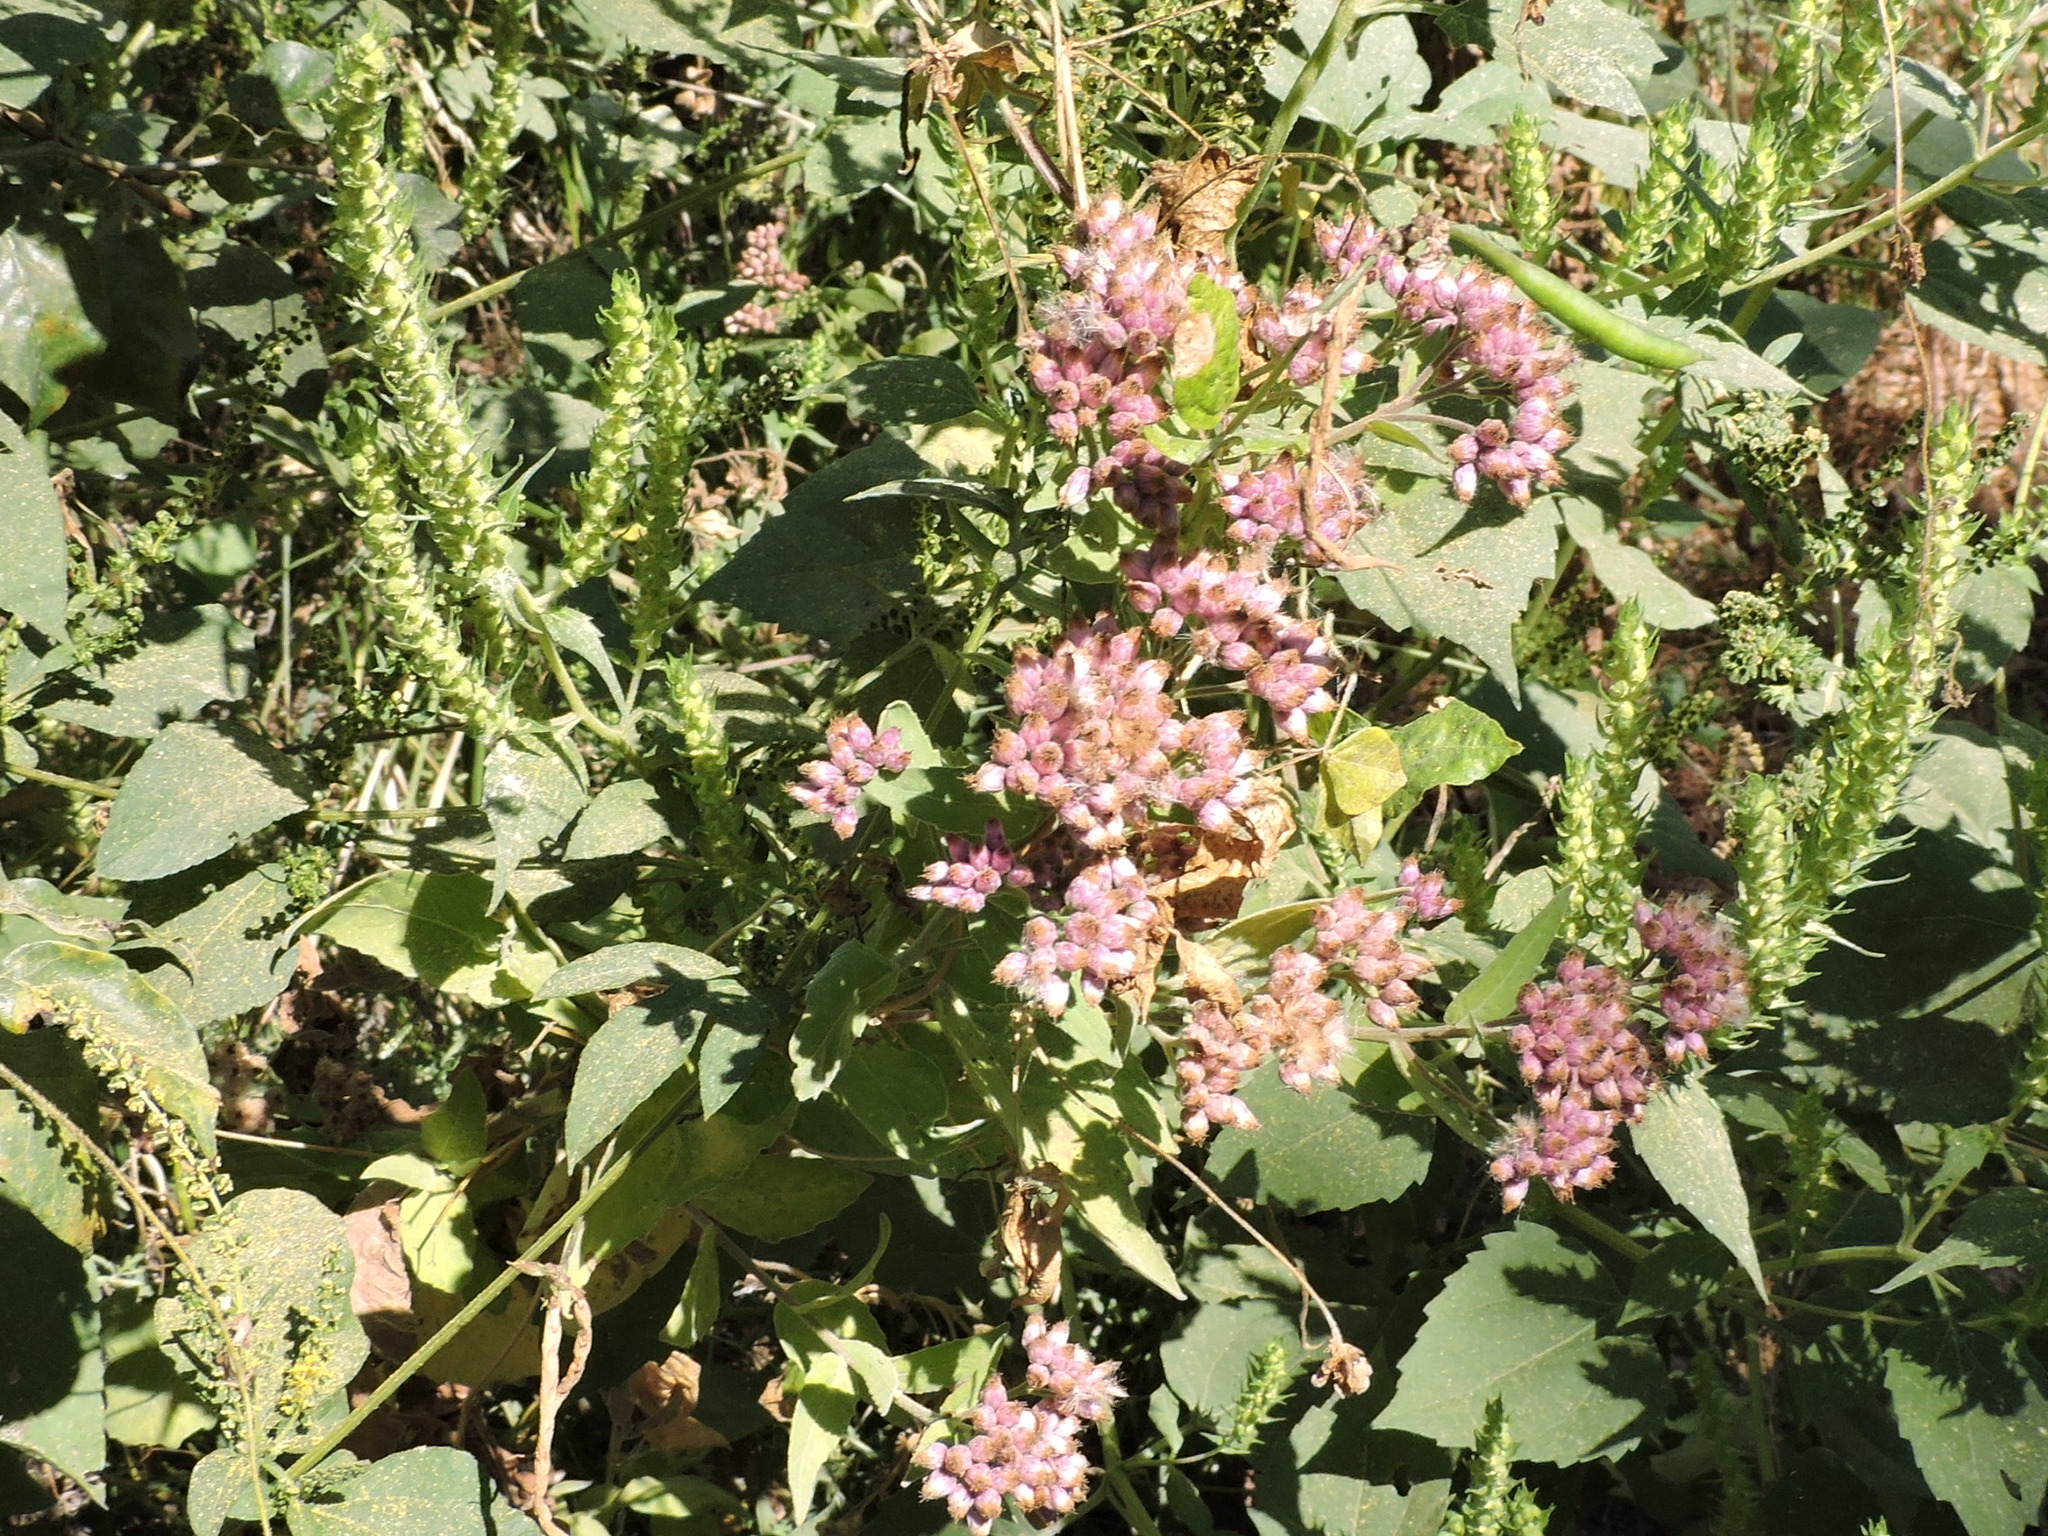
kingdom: Plantae
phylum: Tracheophyta
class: Magnoliopsida
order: Asterales
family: Asteraceae
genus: Pluchea
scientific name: Pluchea odorata
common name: Saltmarsh fleabane
